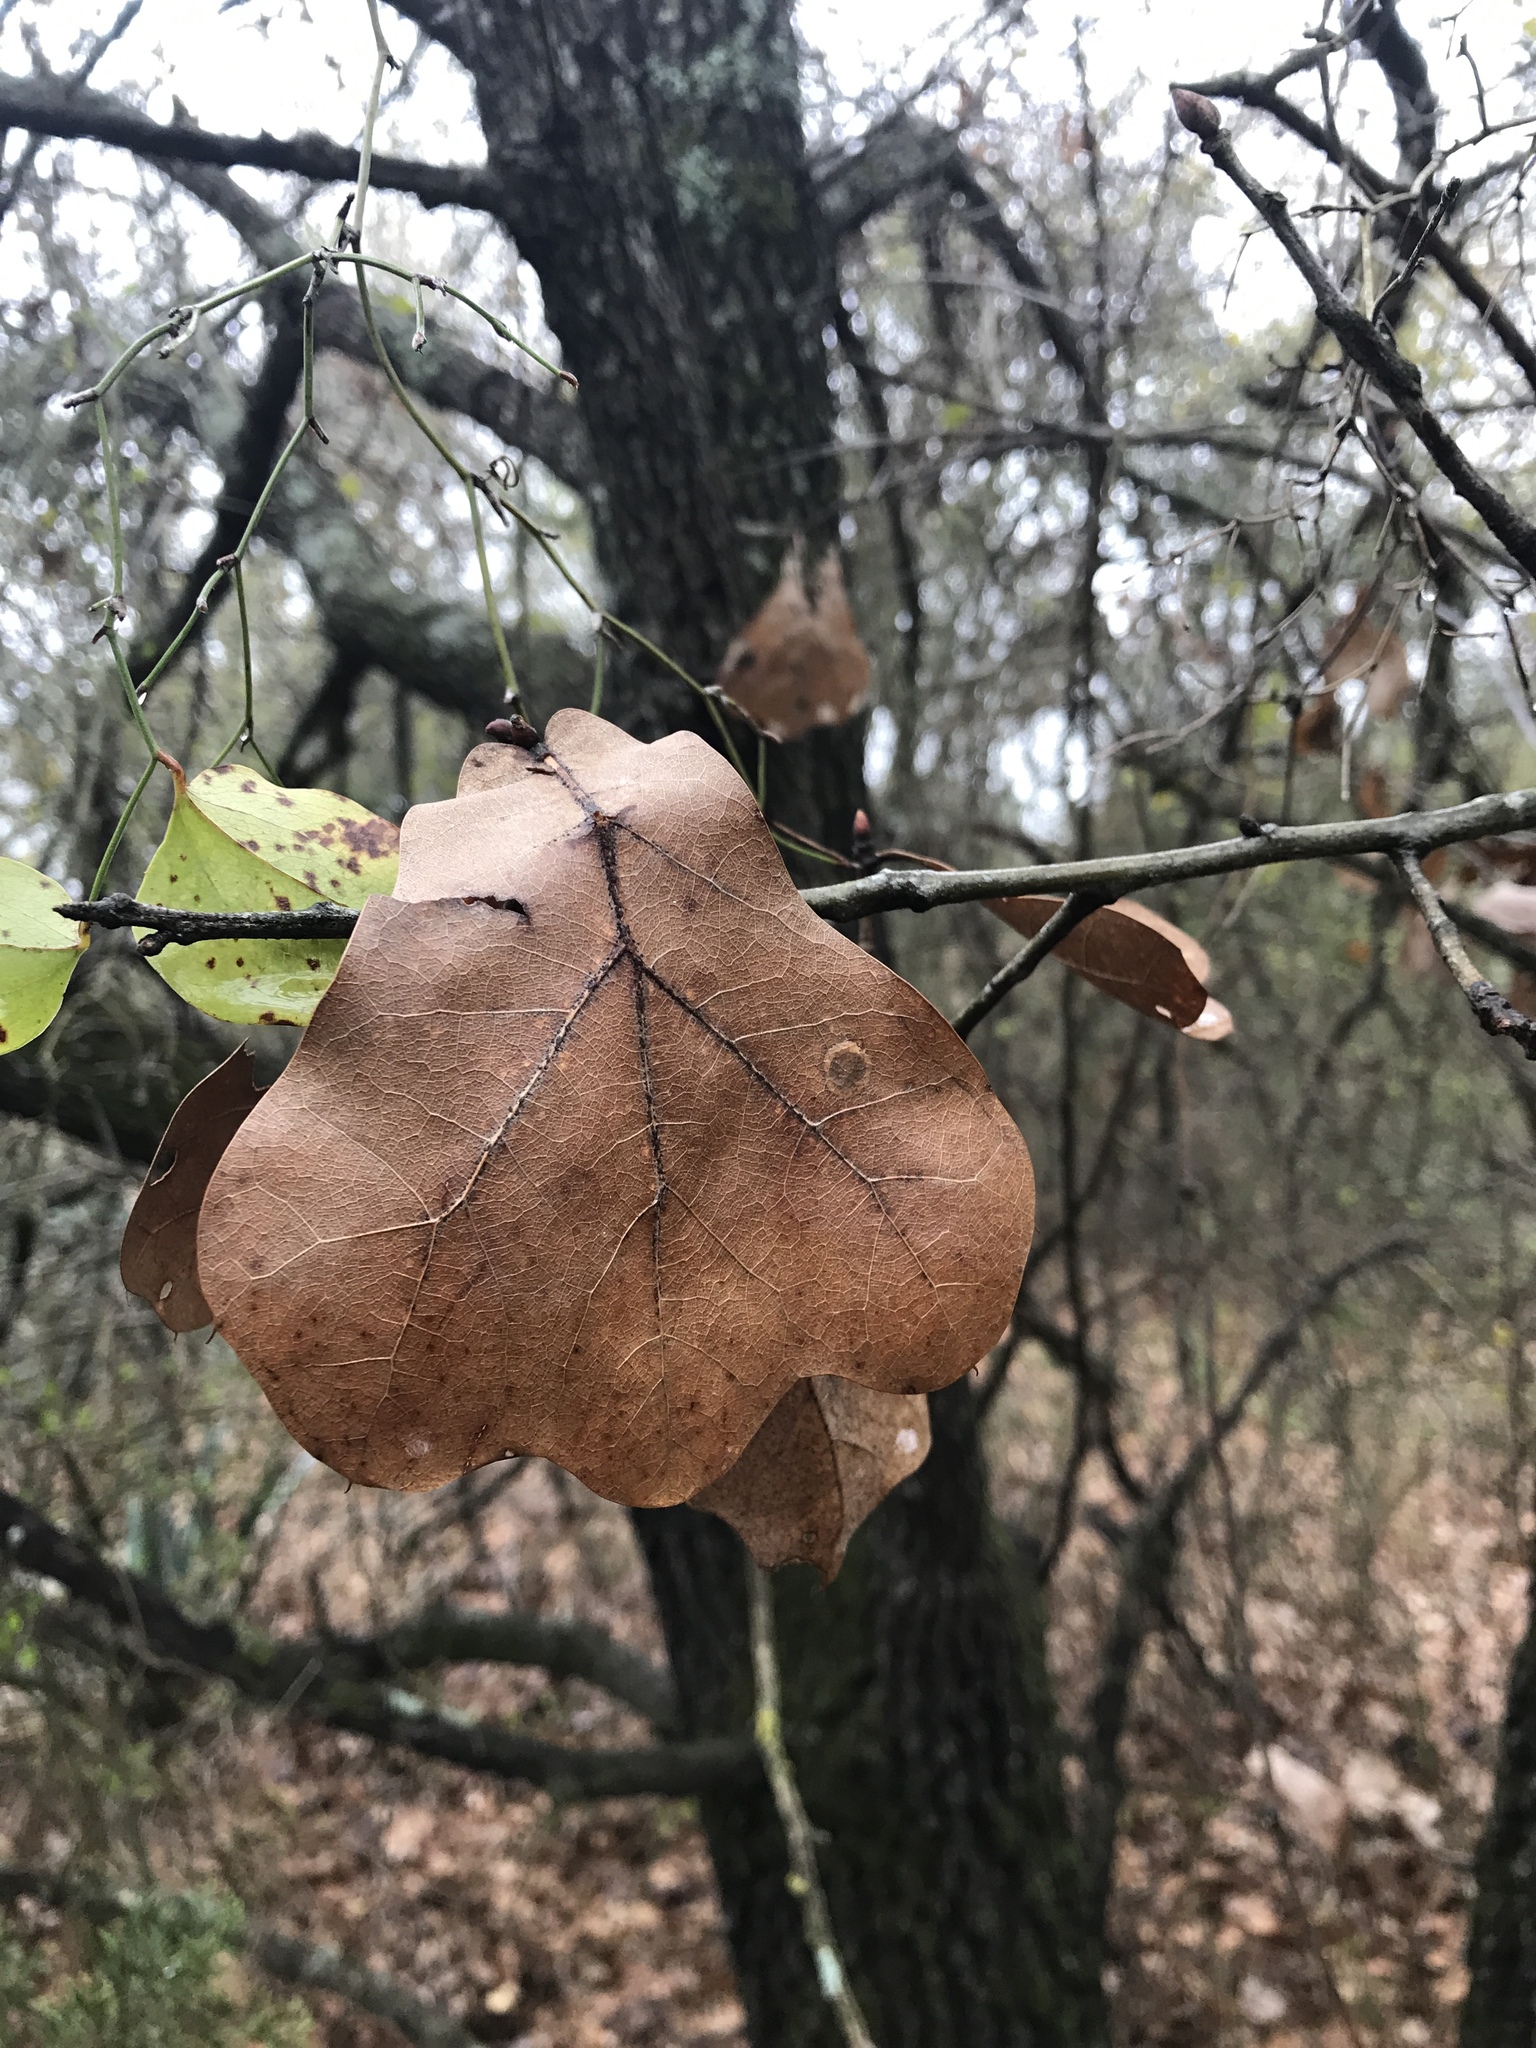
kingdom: Plantae
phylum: Tracheophyta
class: Magnoliopsida
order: Fagales
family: Fagaceae
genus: Quercus
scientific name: Quercus marilandica
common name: Blackjack oak
